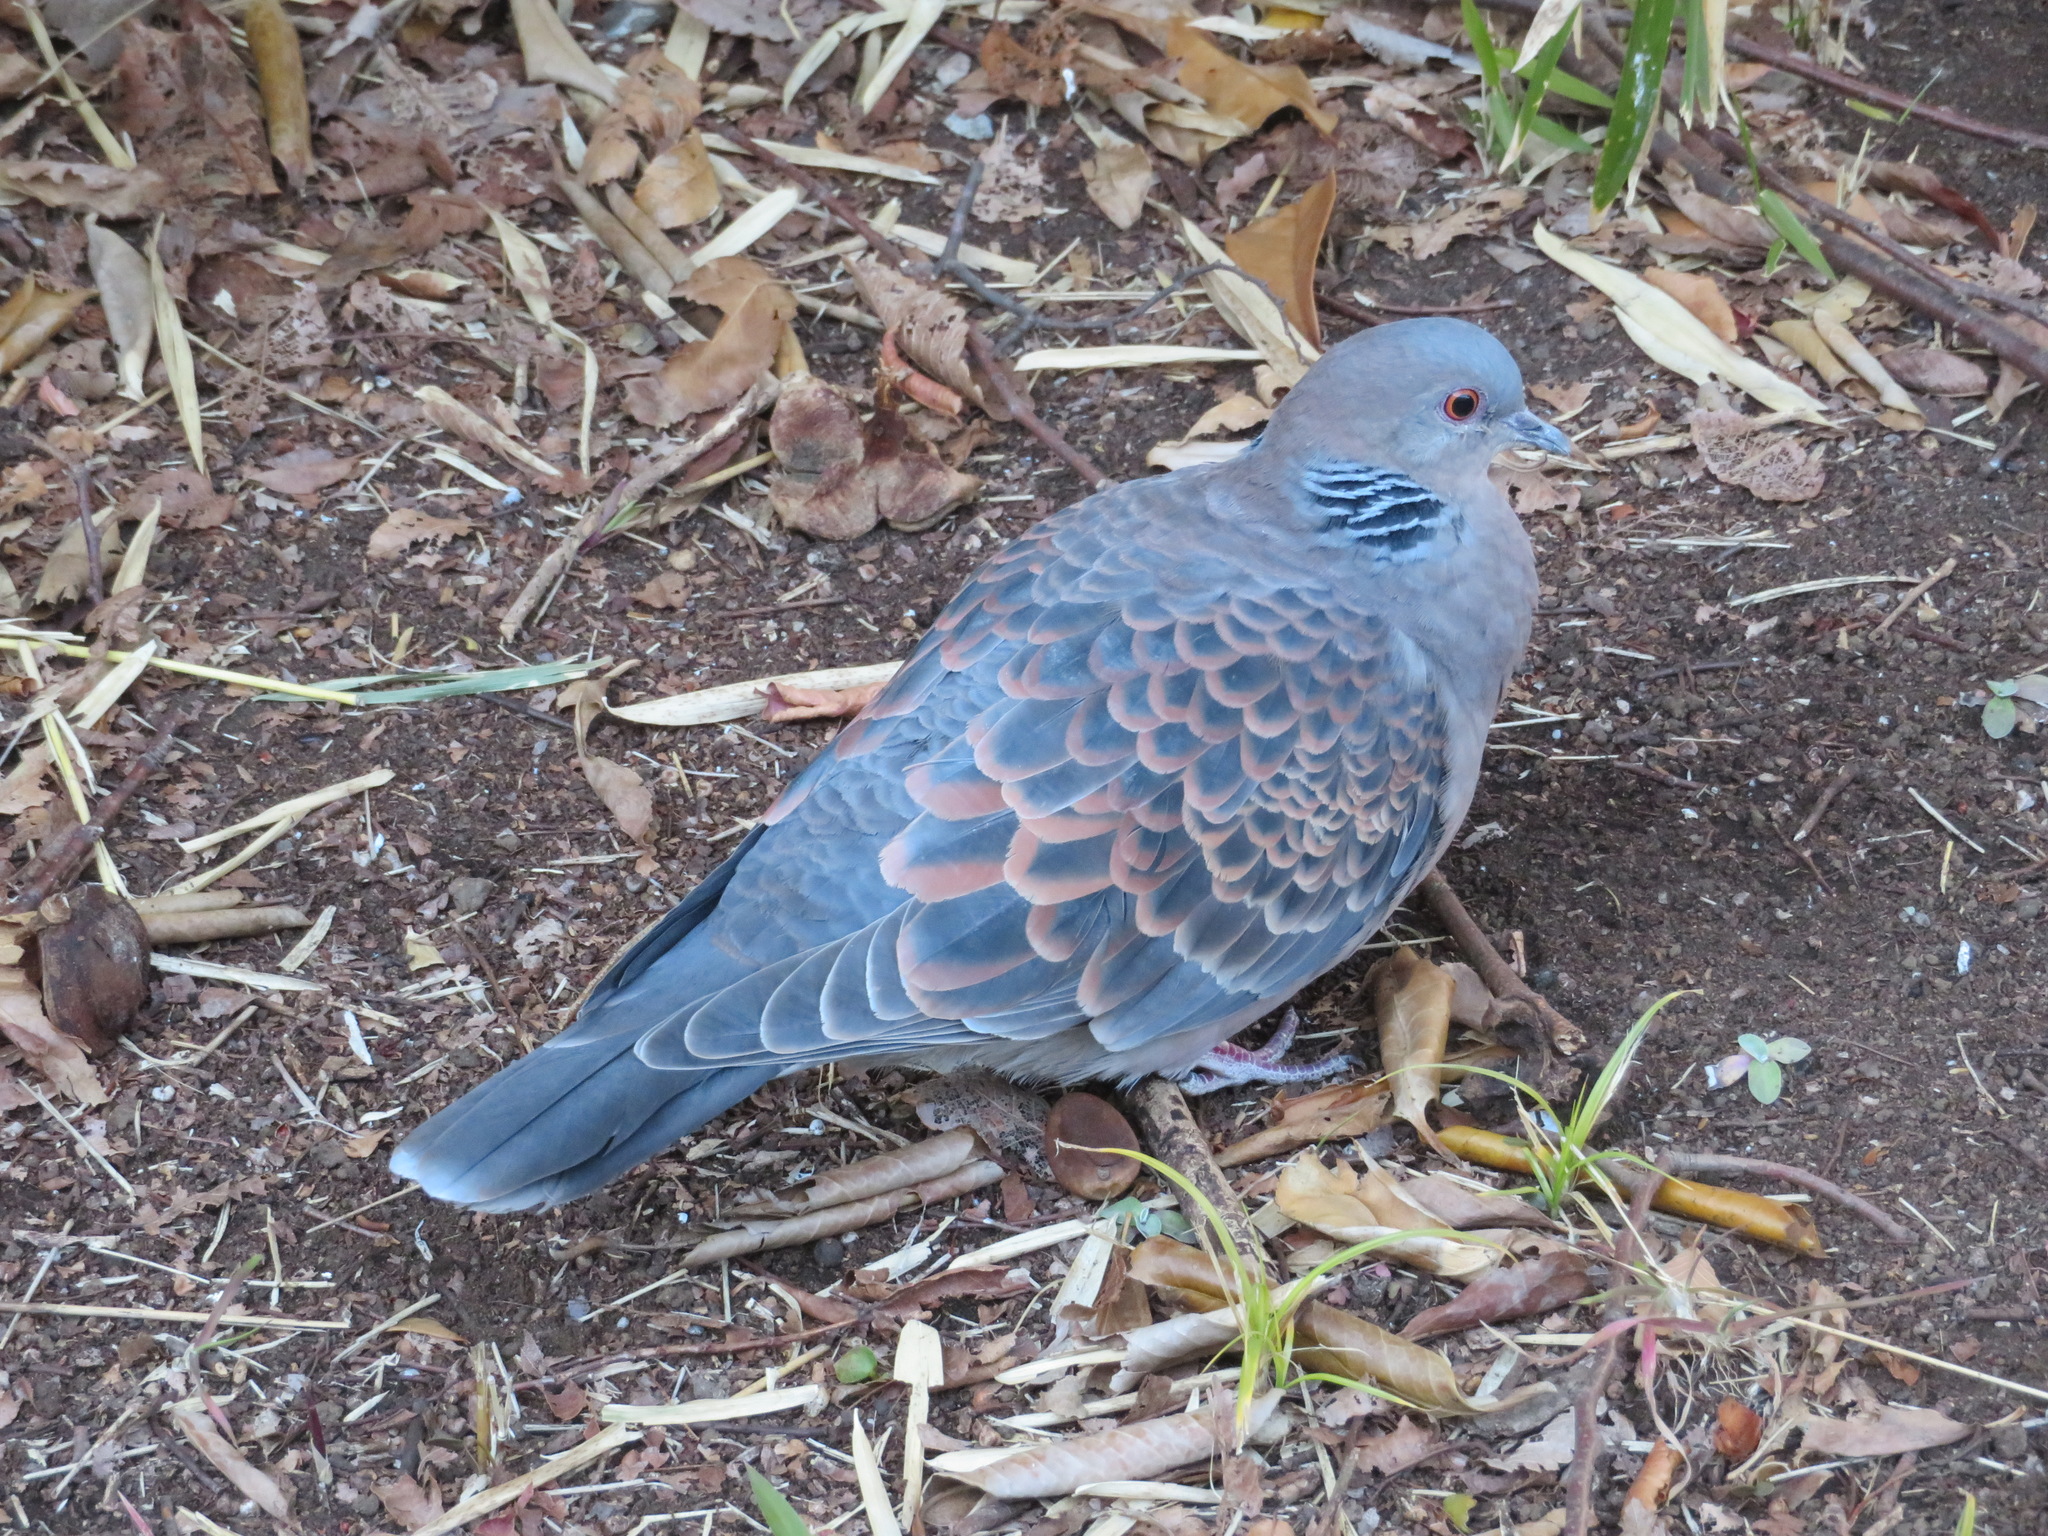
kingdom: Animalia
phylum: Chordata
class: Aves
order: Columbiformes
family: Columbidae
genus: Streptopelia
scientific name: Streptopelia orientalis
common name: Oriental turtle dove
